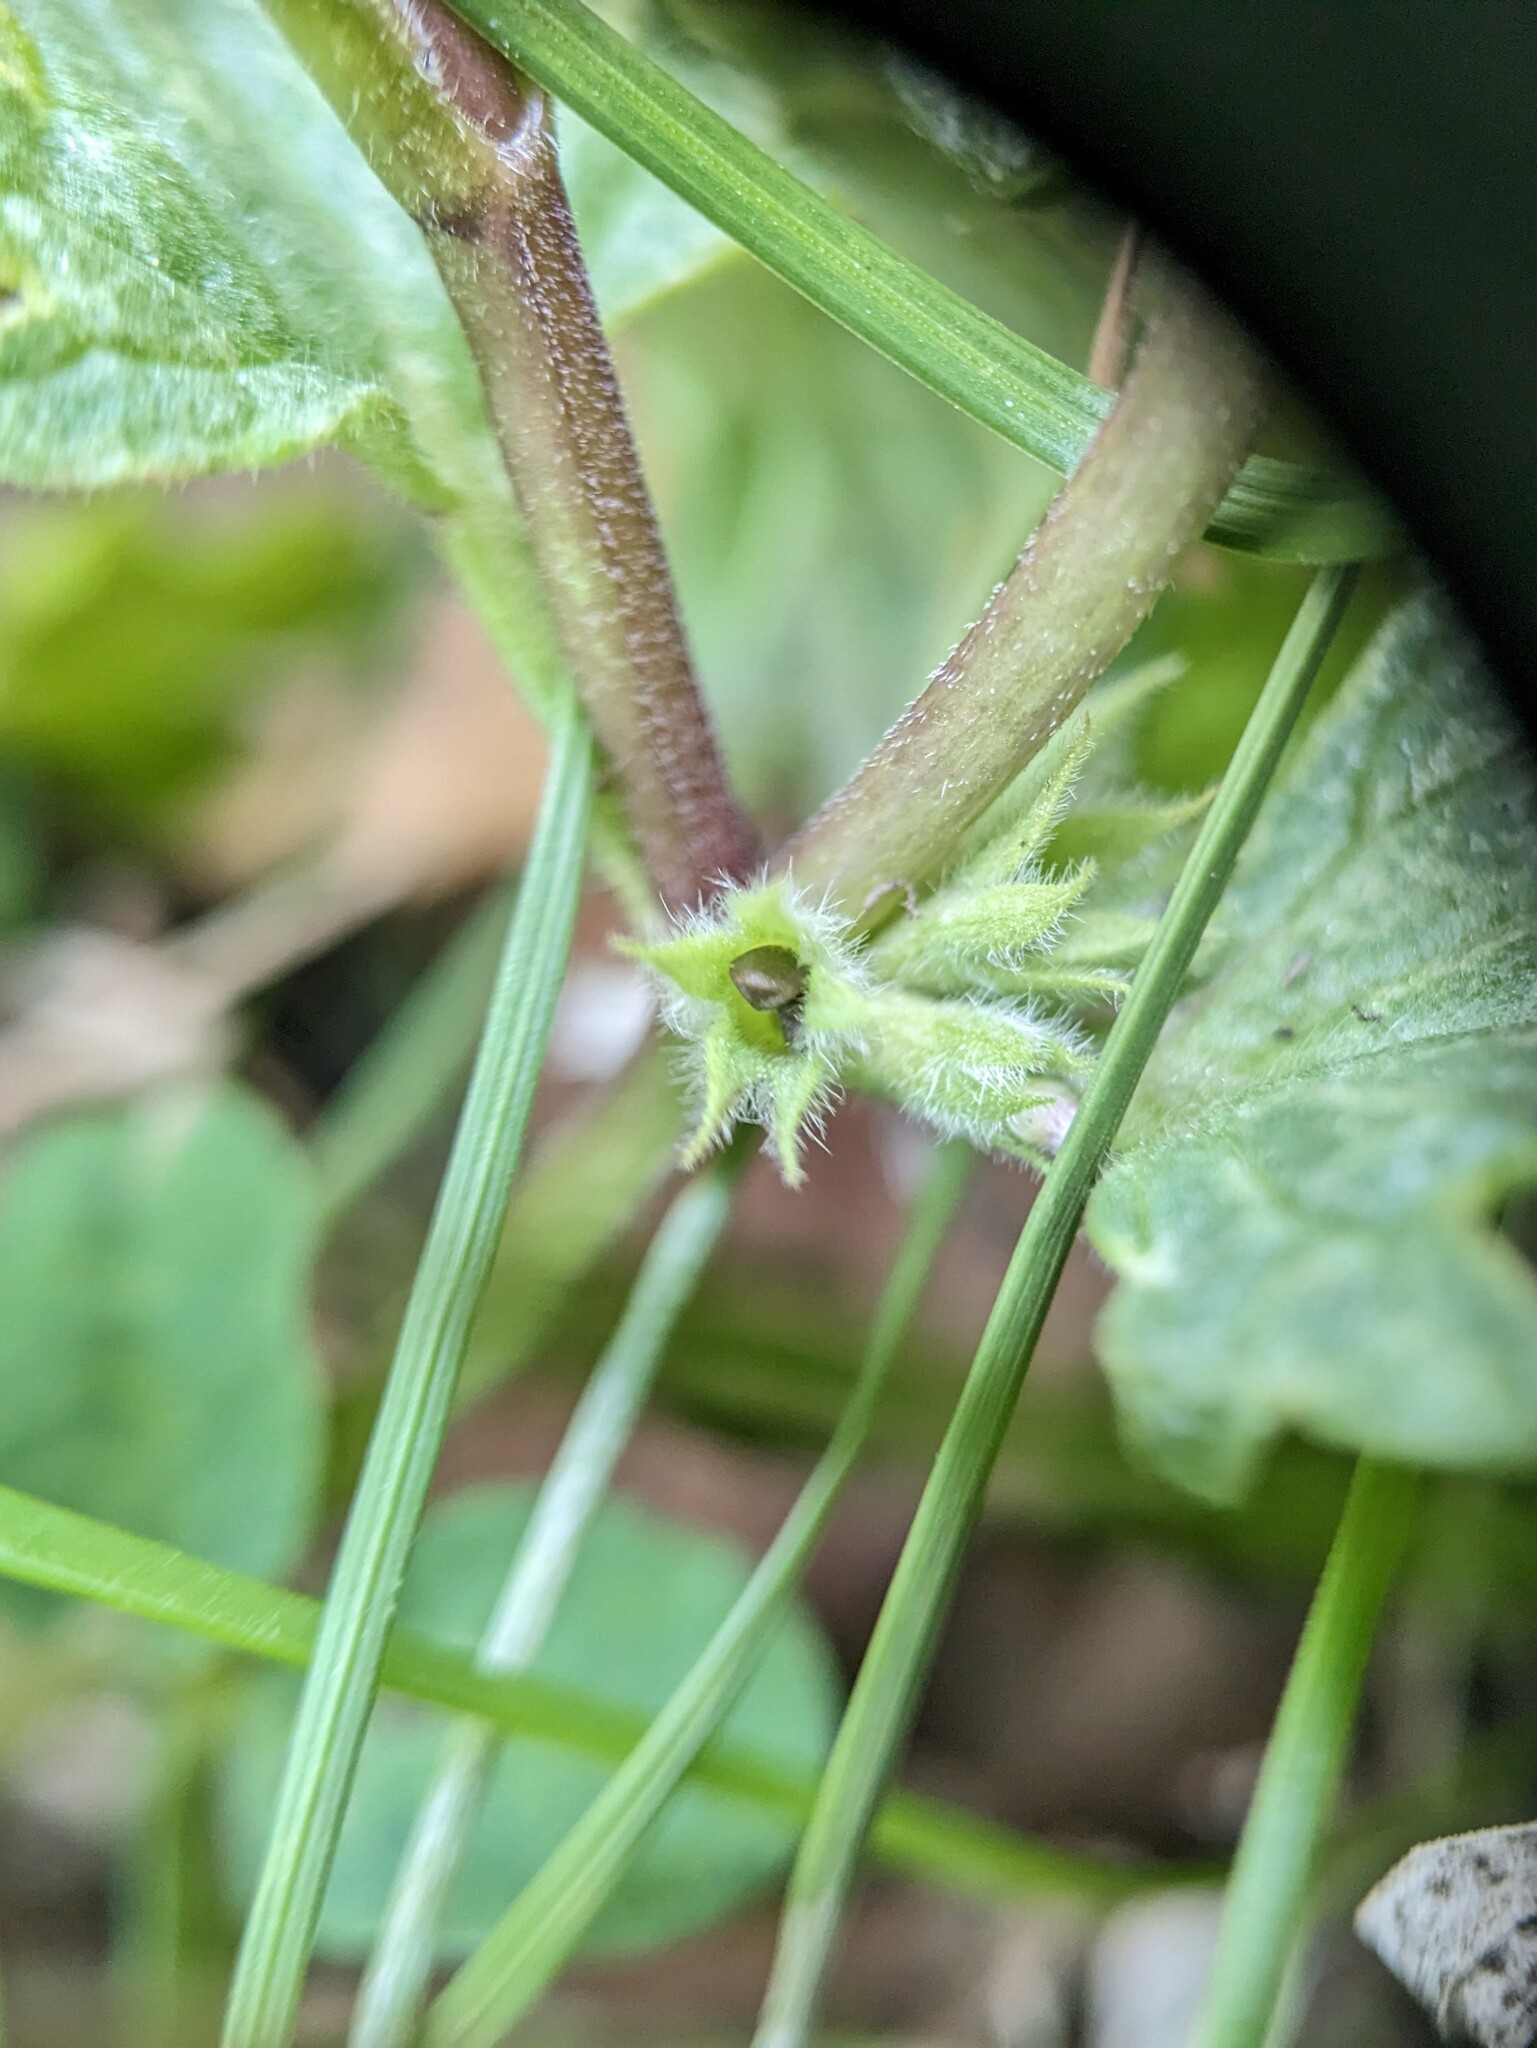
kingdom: Plantae
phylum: Tracheophyta
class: Magnoliopsida
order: Lamiales
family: Lamiaceae
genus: Lamium
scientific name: Lamium amplexicaule
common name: Henbit dead-nettle
